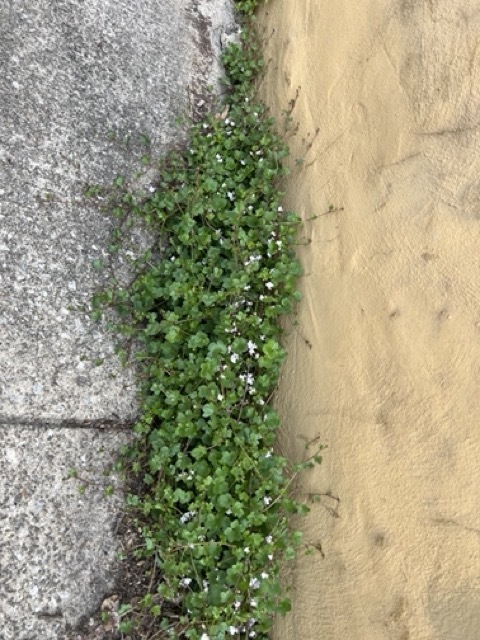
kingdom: Plantae
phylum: Tracheophyta
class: Magnoliopsida
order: Lamiales
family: Plantaginaceae
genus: Cymbalaria
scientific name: Cymbalaria muralis
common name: Ivy-leaved toadflax
